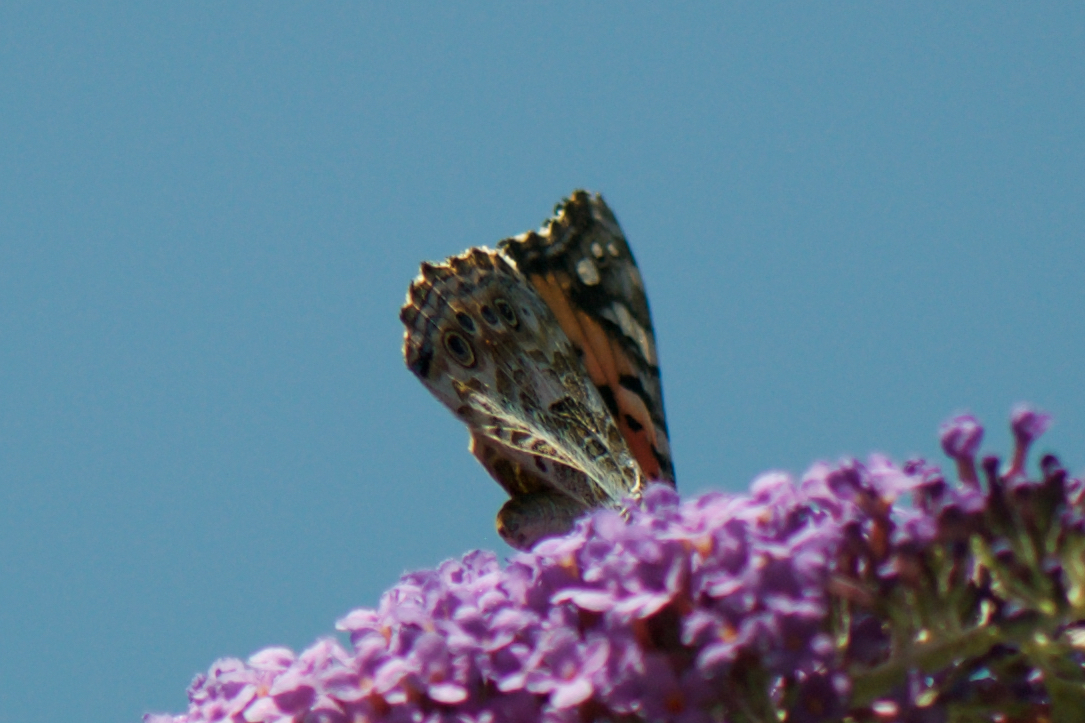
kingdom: Animalia
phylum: Arthropoda
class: Insecta
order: Lepidoptera
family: Nymphalidae
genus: Vanessa
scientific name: Vanessa cardui
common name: Painted lady
